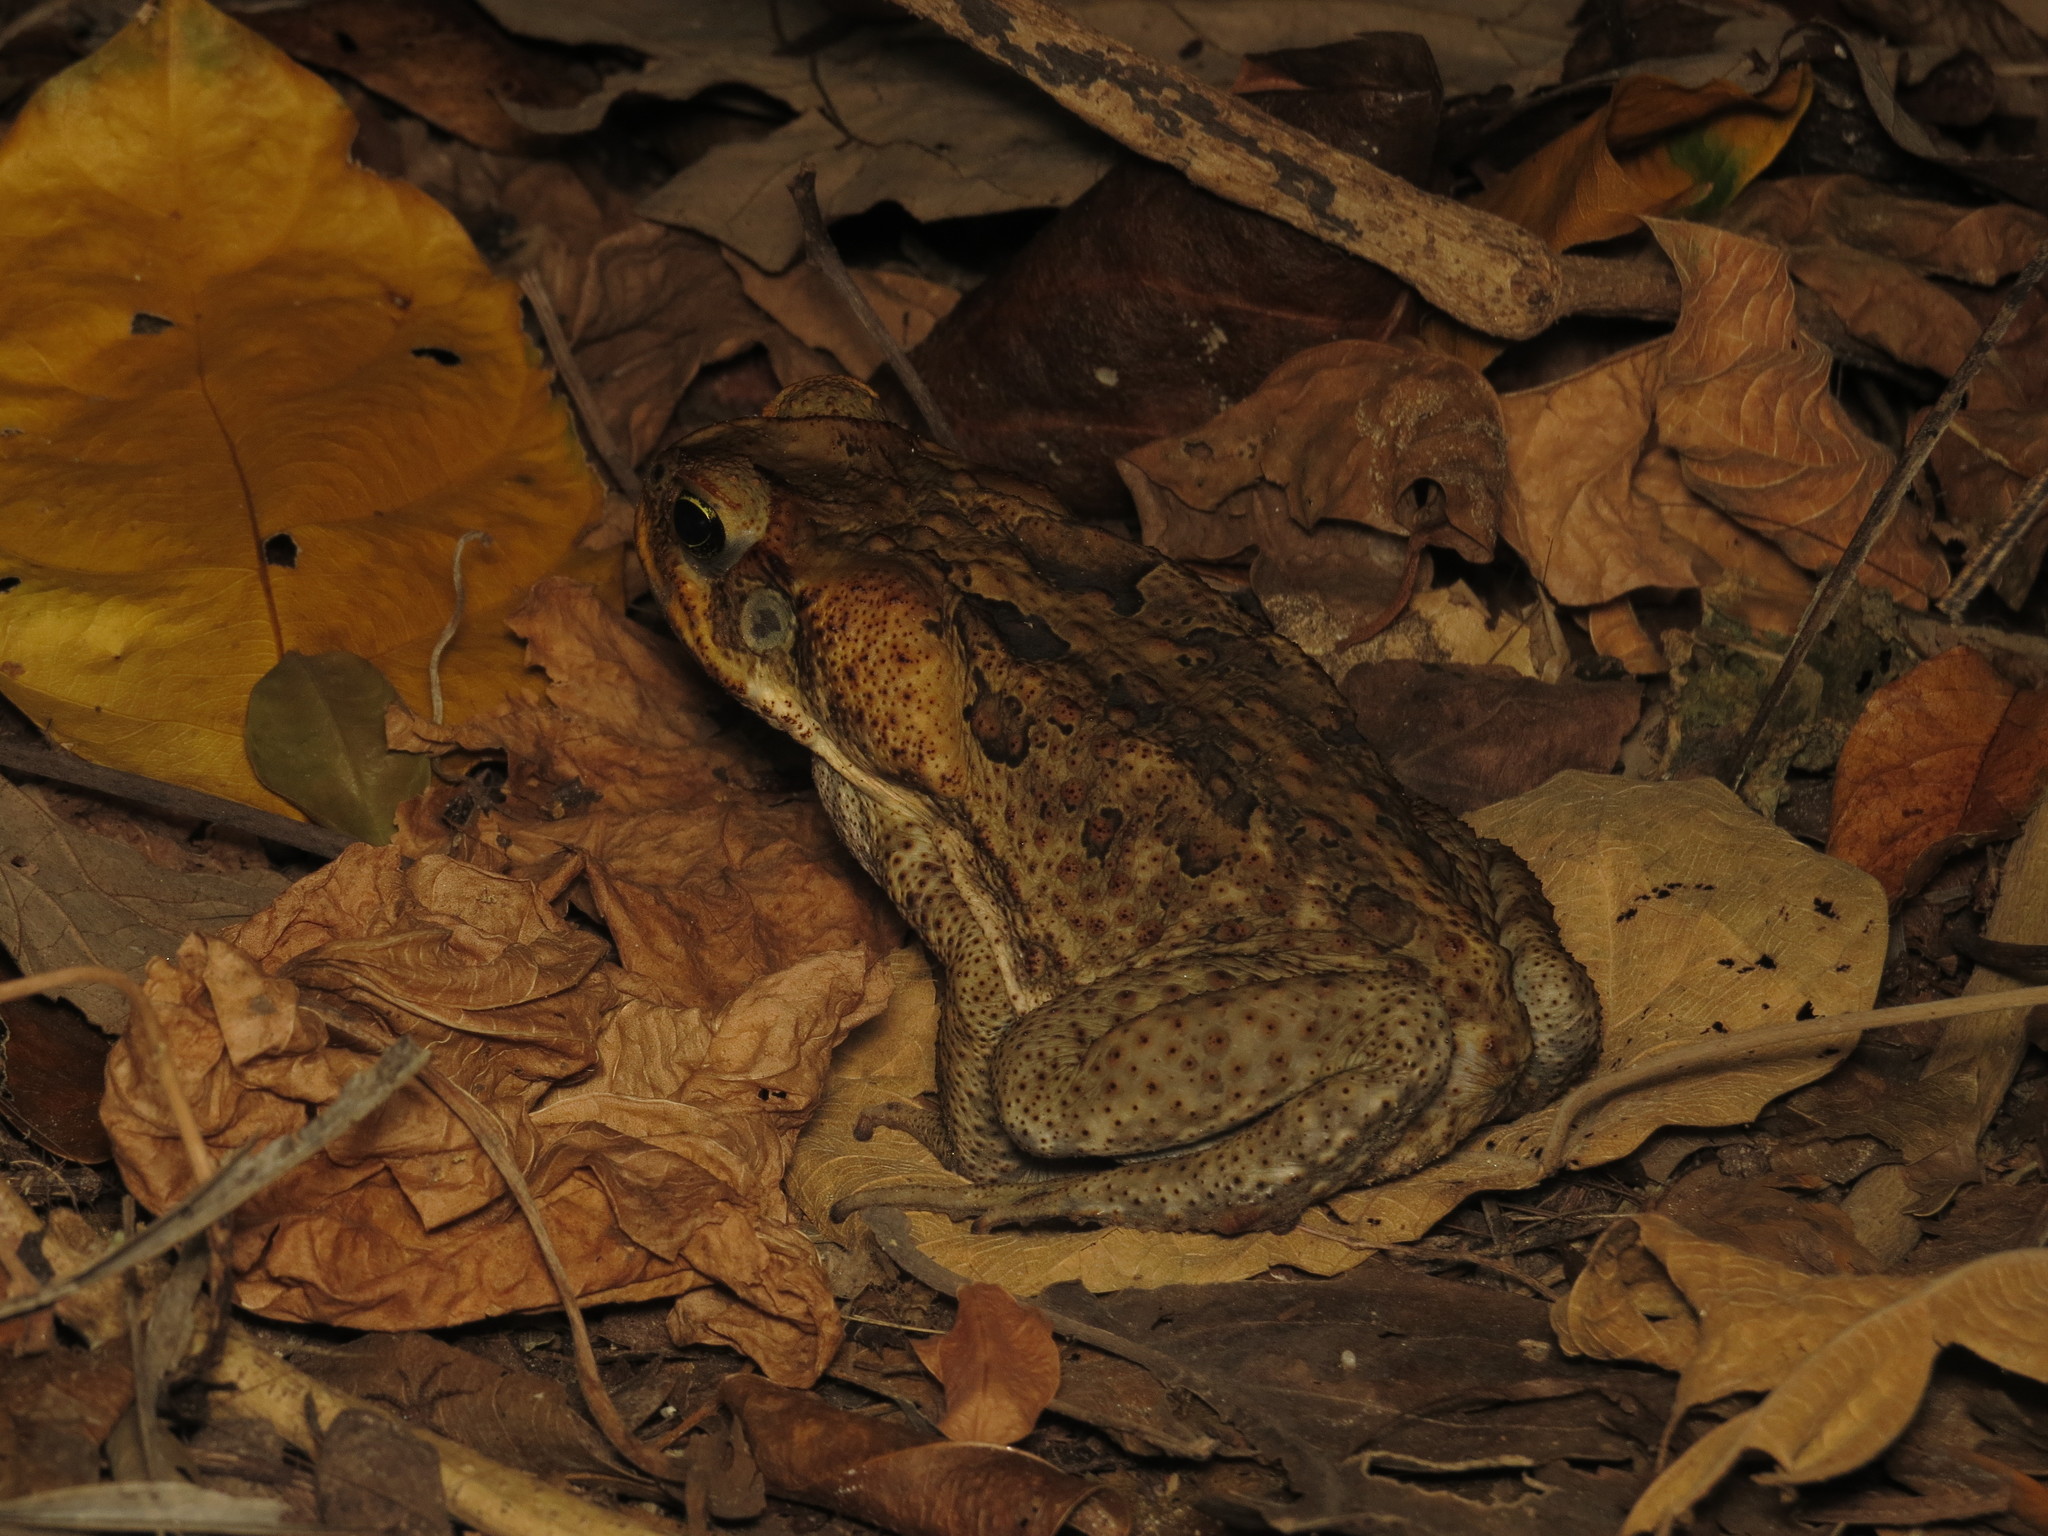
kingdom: Animalia
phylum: Chordata
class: Amphibia
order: Anura
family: Bufonidae
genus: Rhinella
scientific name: Rhinella marina
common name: Cane toad
